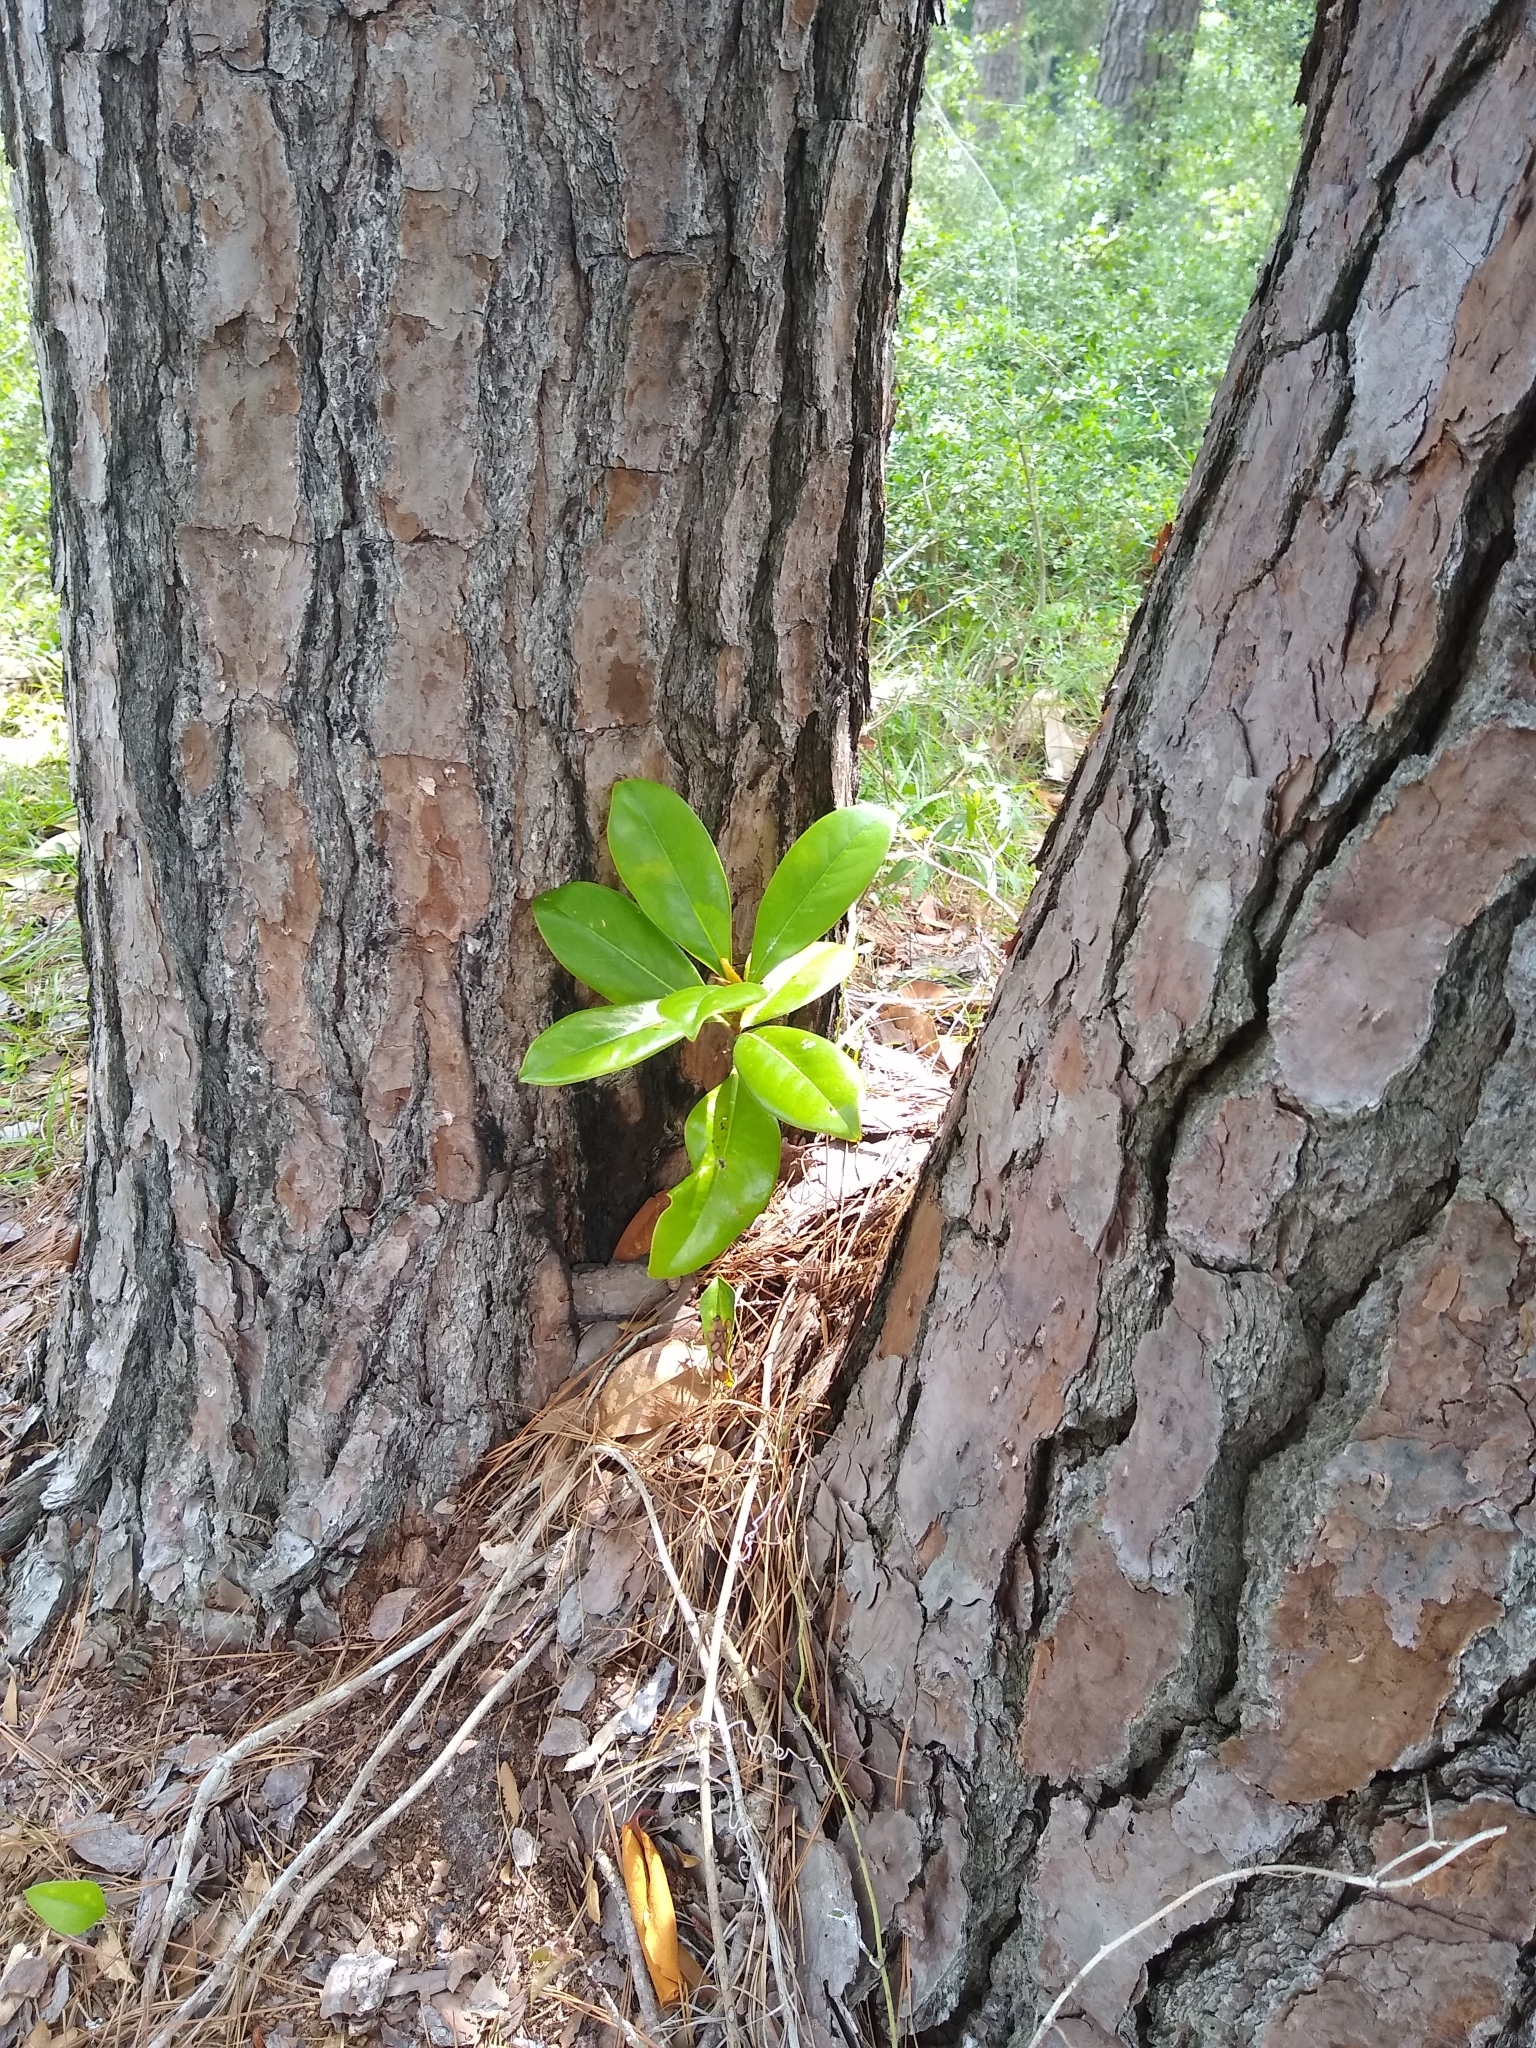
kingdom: Plantae
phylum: Tracheophyta
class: Magnoliopsida
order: Magnoliales
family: Magnoliaceae
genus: Magnolia
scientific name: Magnolia grandiflora
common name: Southern magnolia
